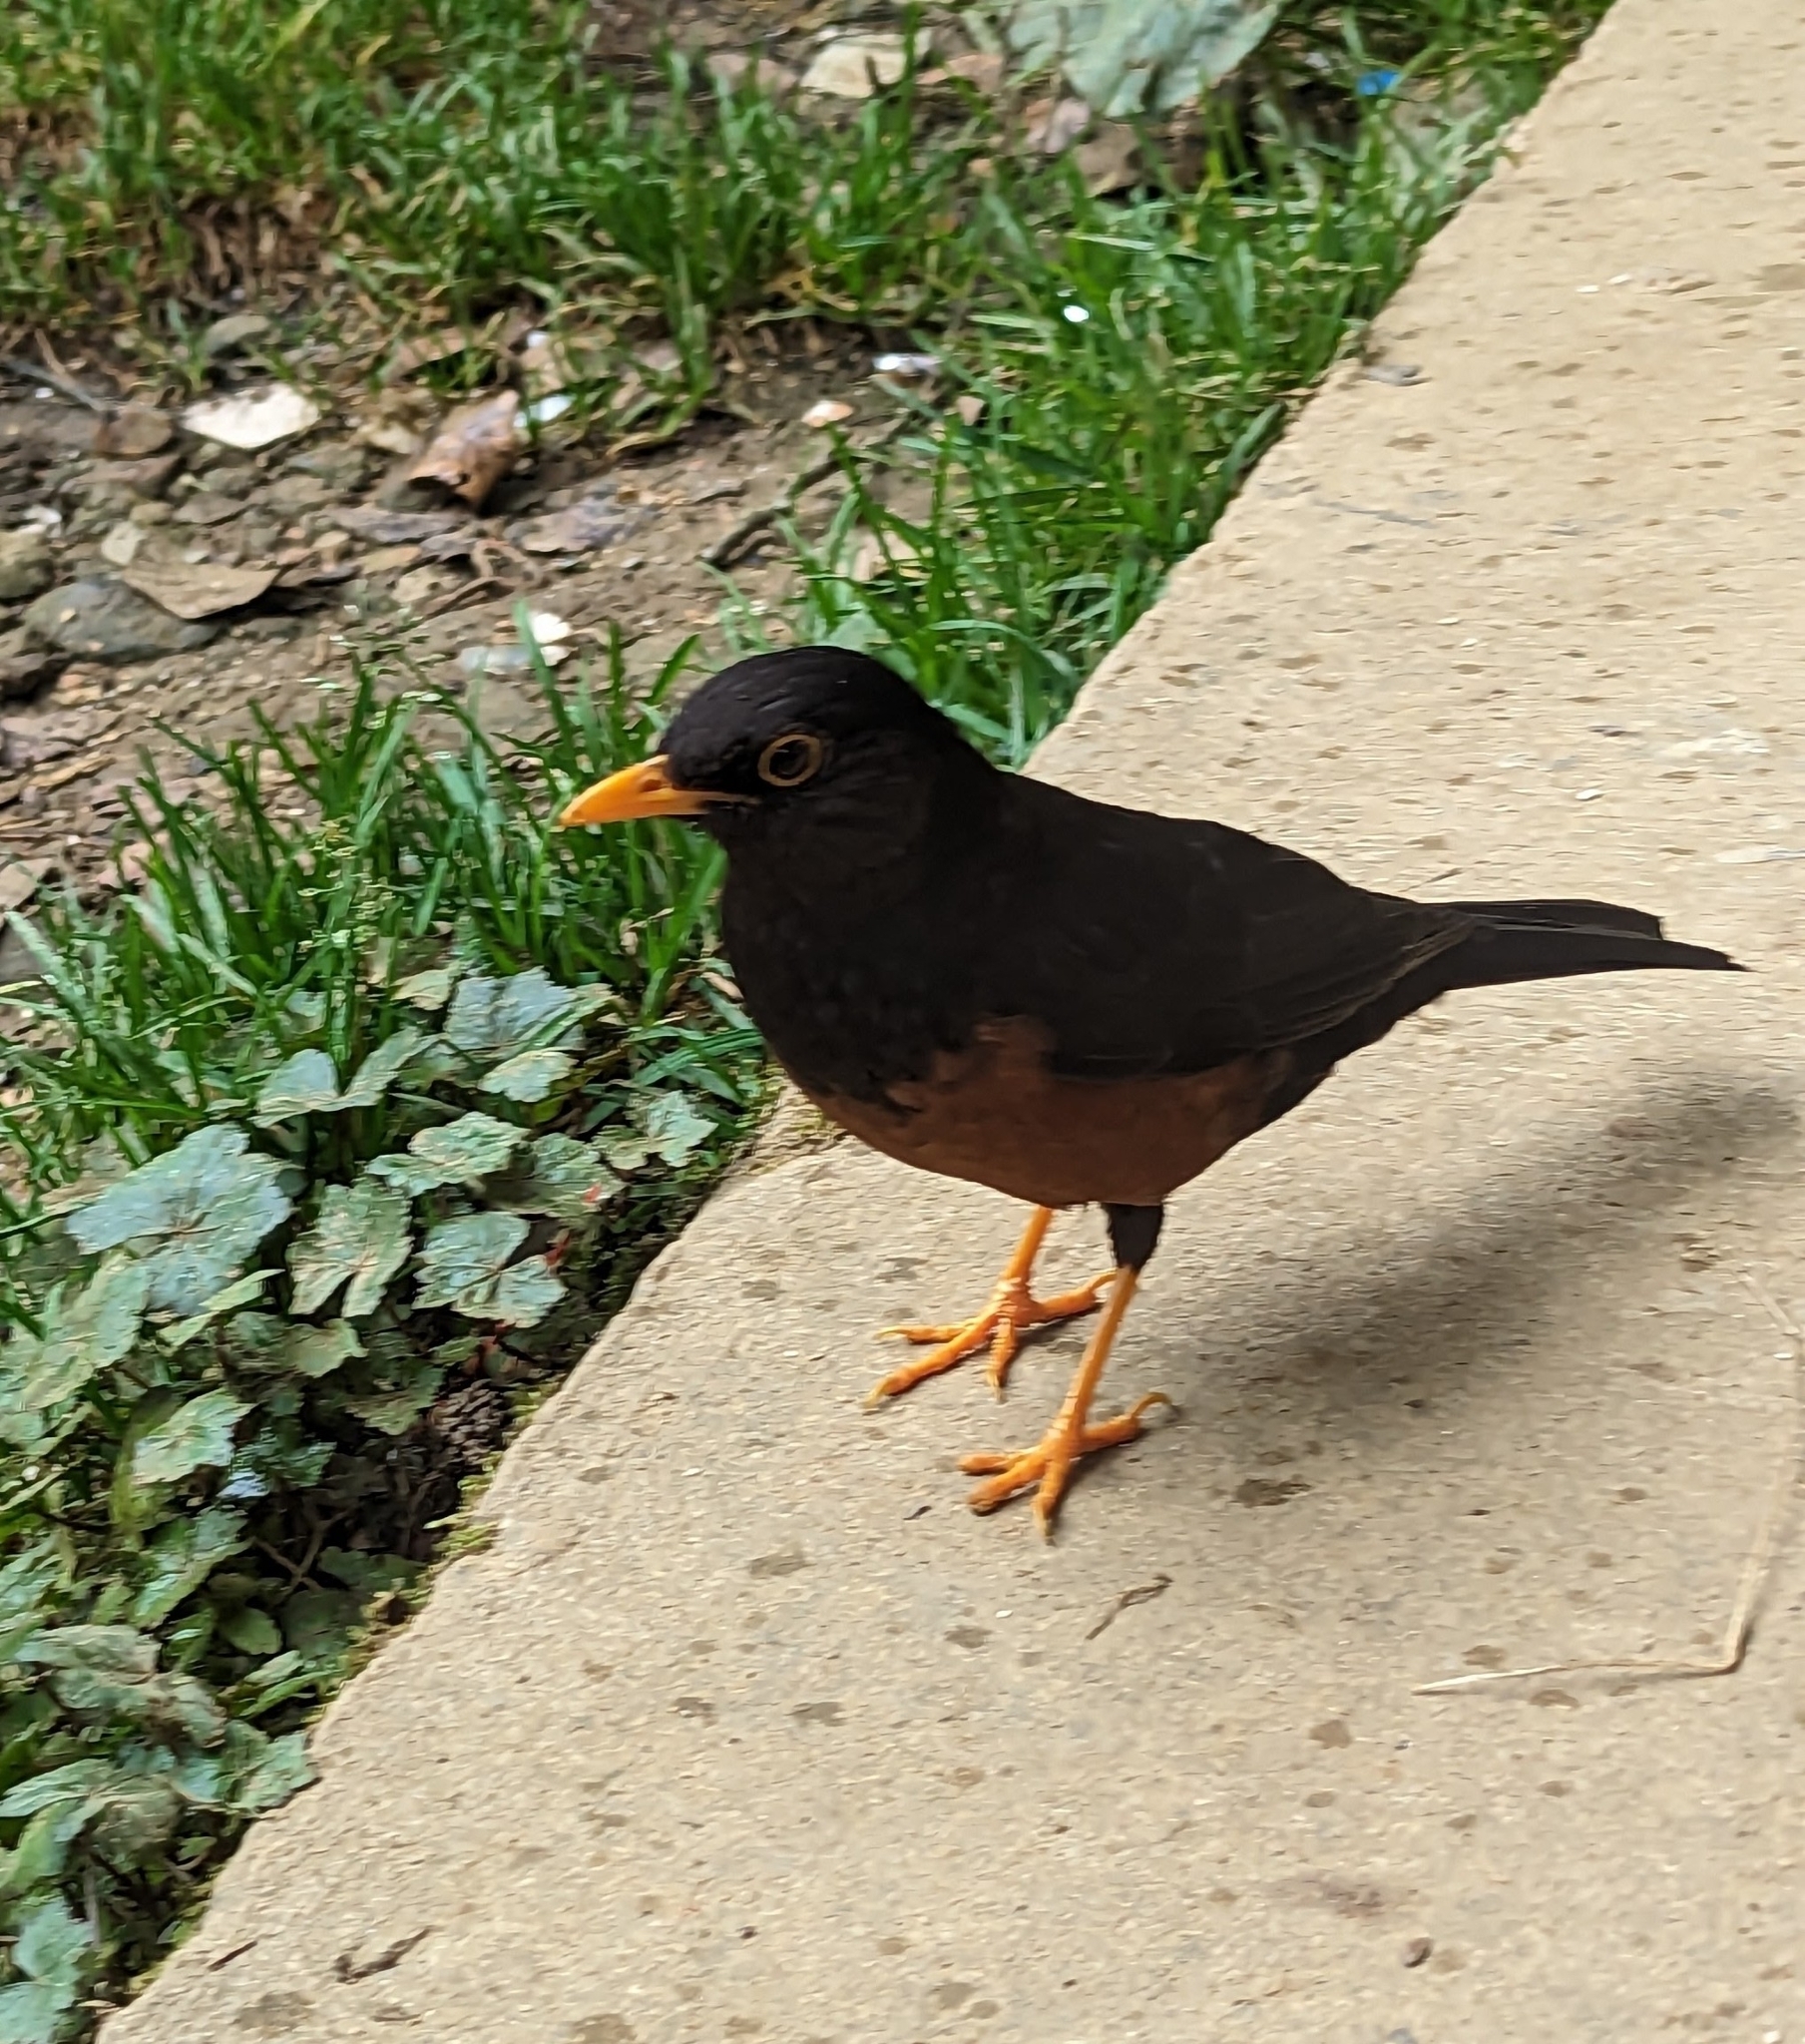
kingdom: Animalia
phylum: Chordata
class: Aves
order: Passeriformes
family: Turdidae
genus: Turdus
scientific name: Turdus poliocephalus
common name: Island thrush
